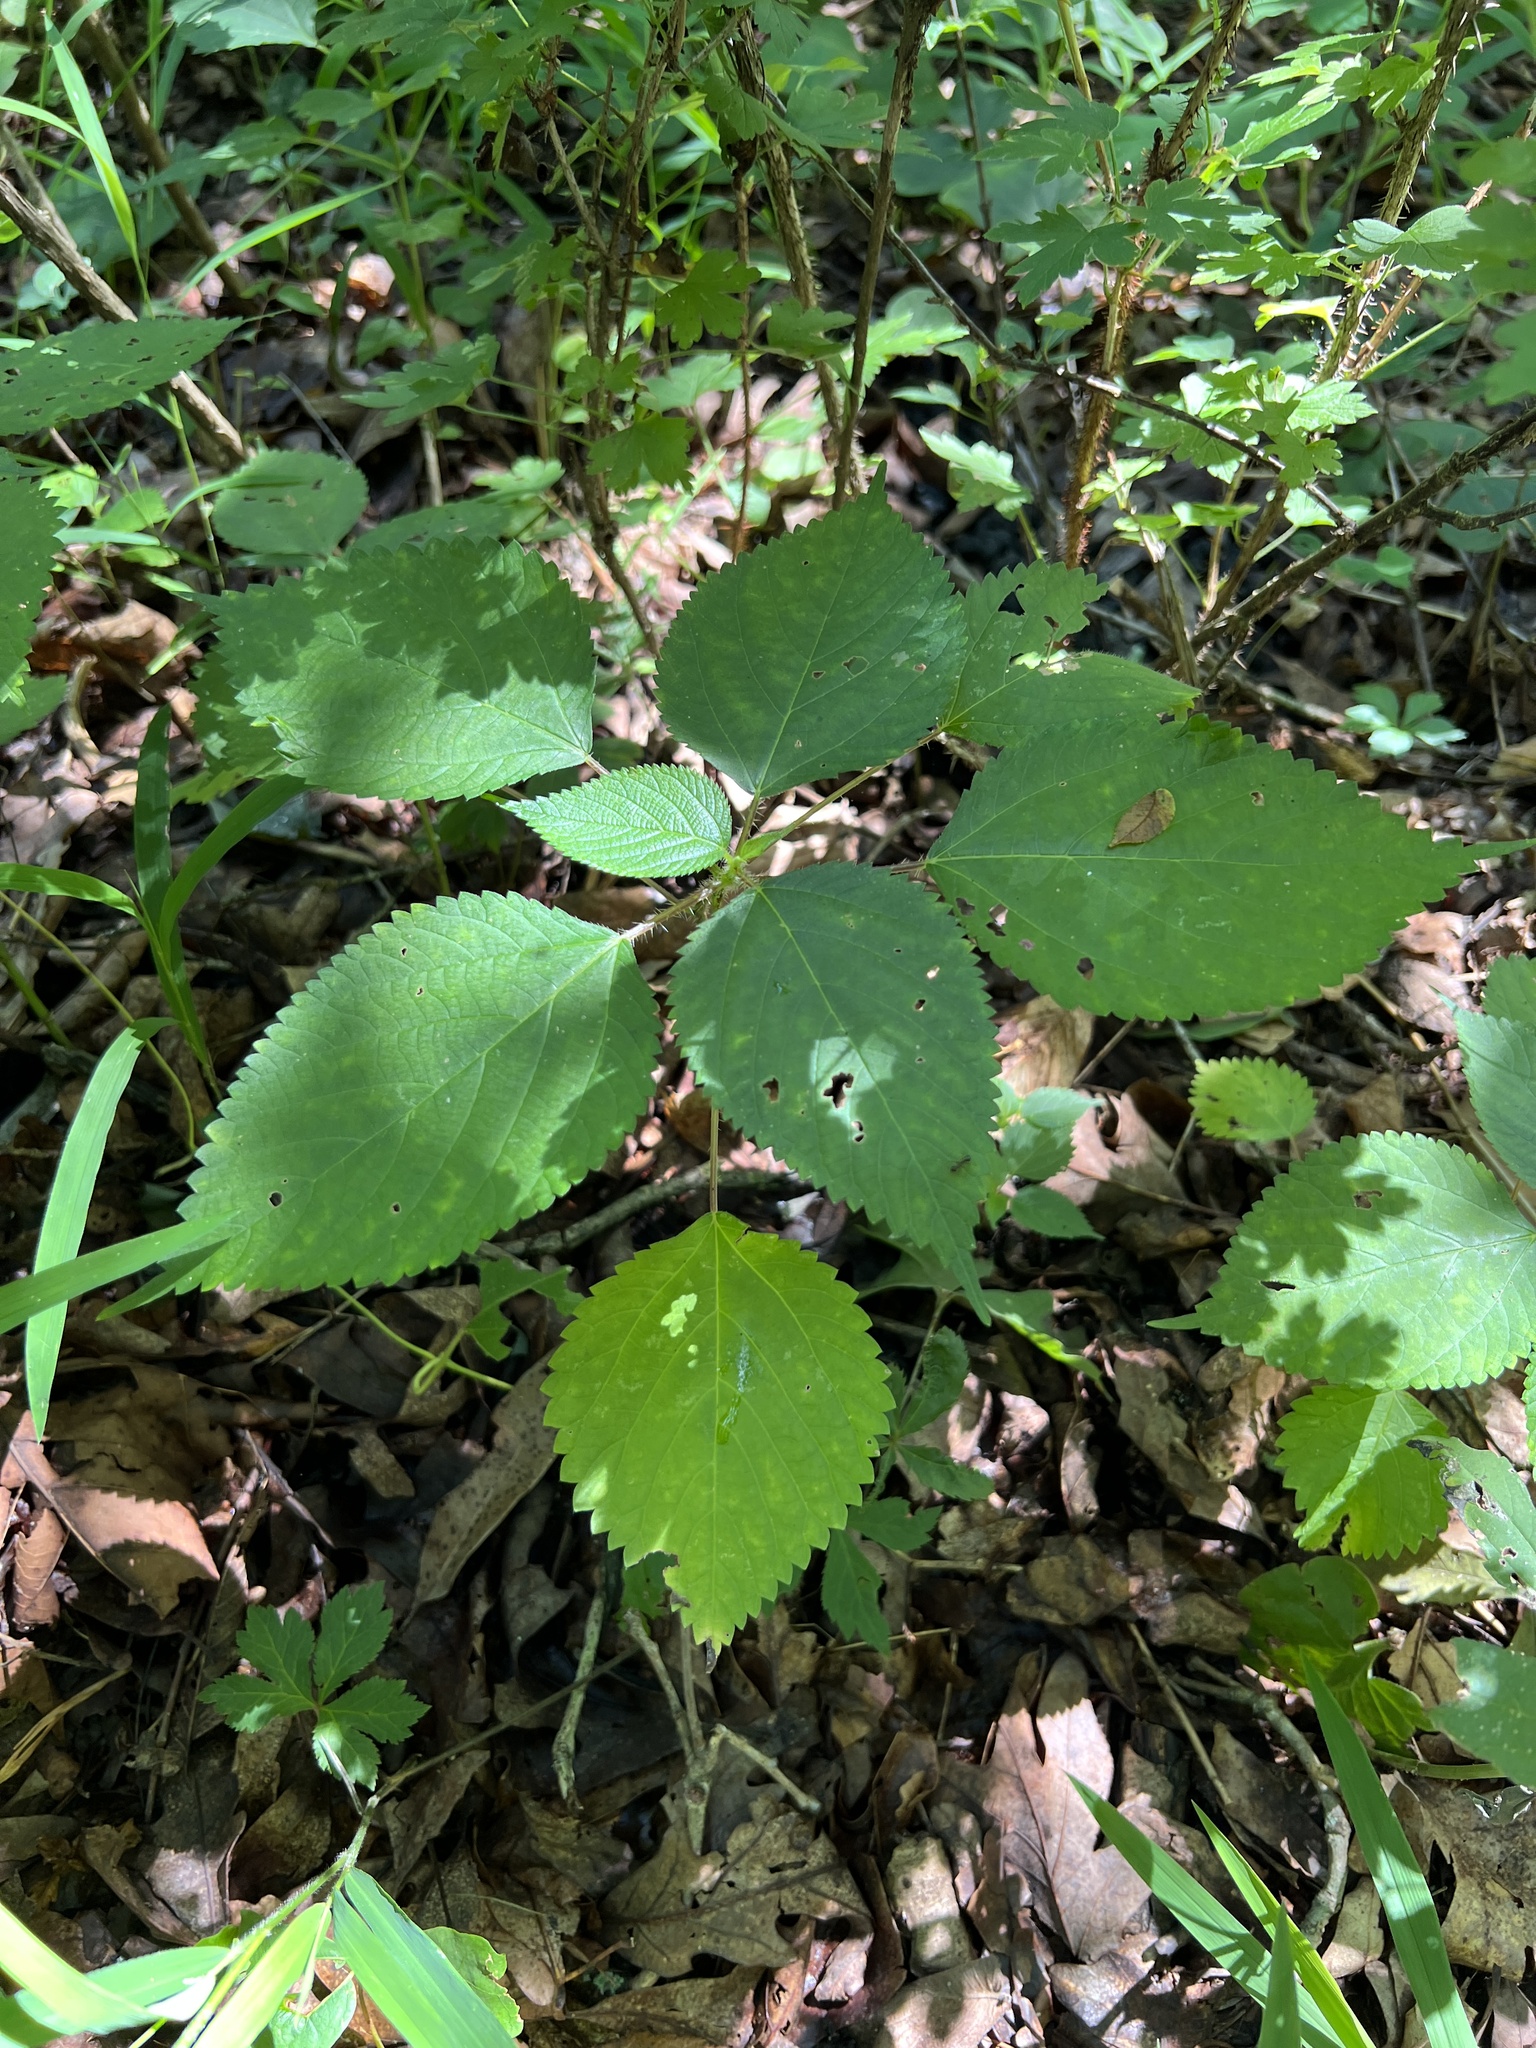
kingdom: Plantae
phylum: Tracheophyta
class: Magnoliopsida
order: Rosales
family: Urticaceae
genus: Laportea
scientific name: Laportea canadensis
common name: Canada nettle
